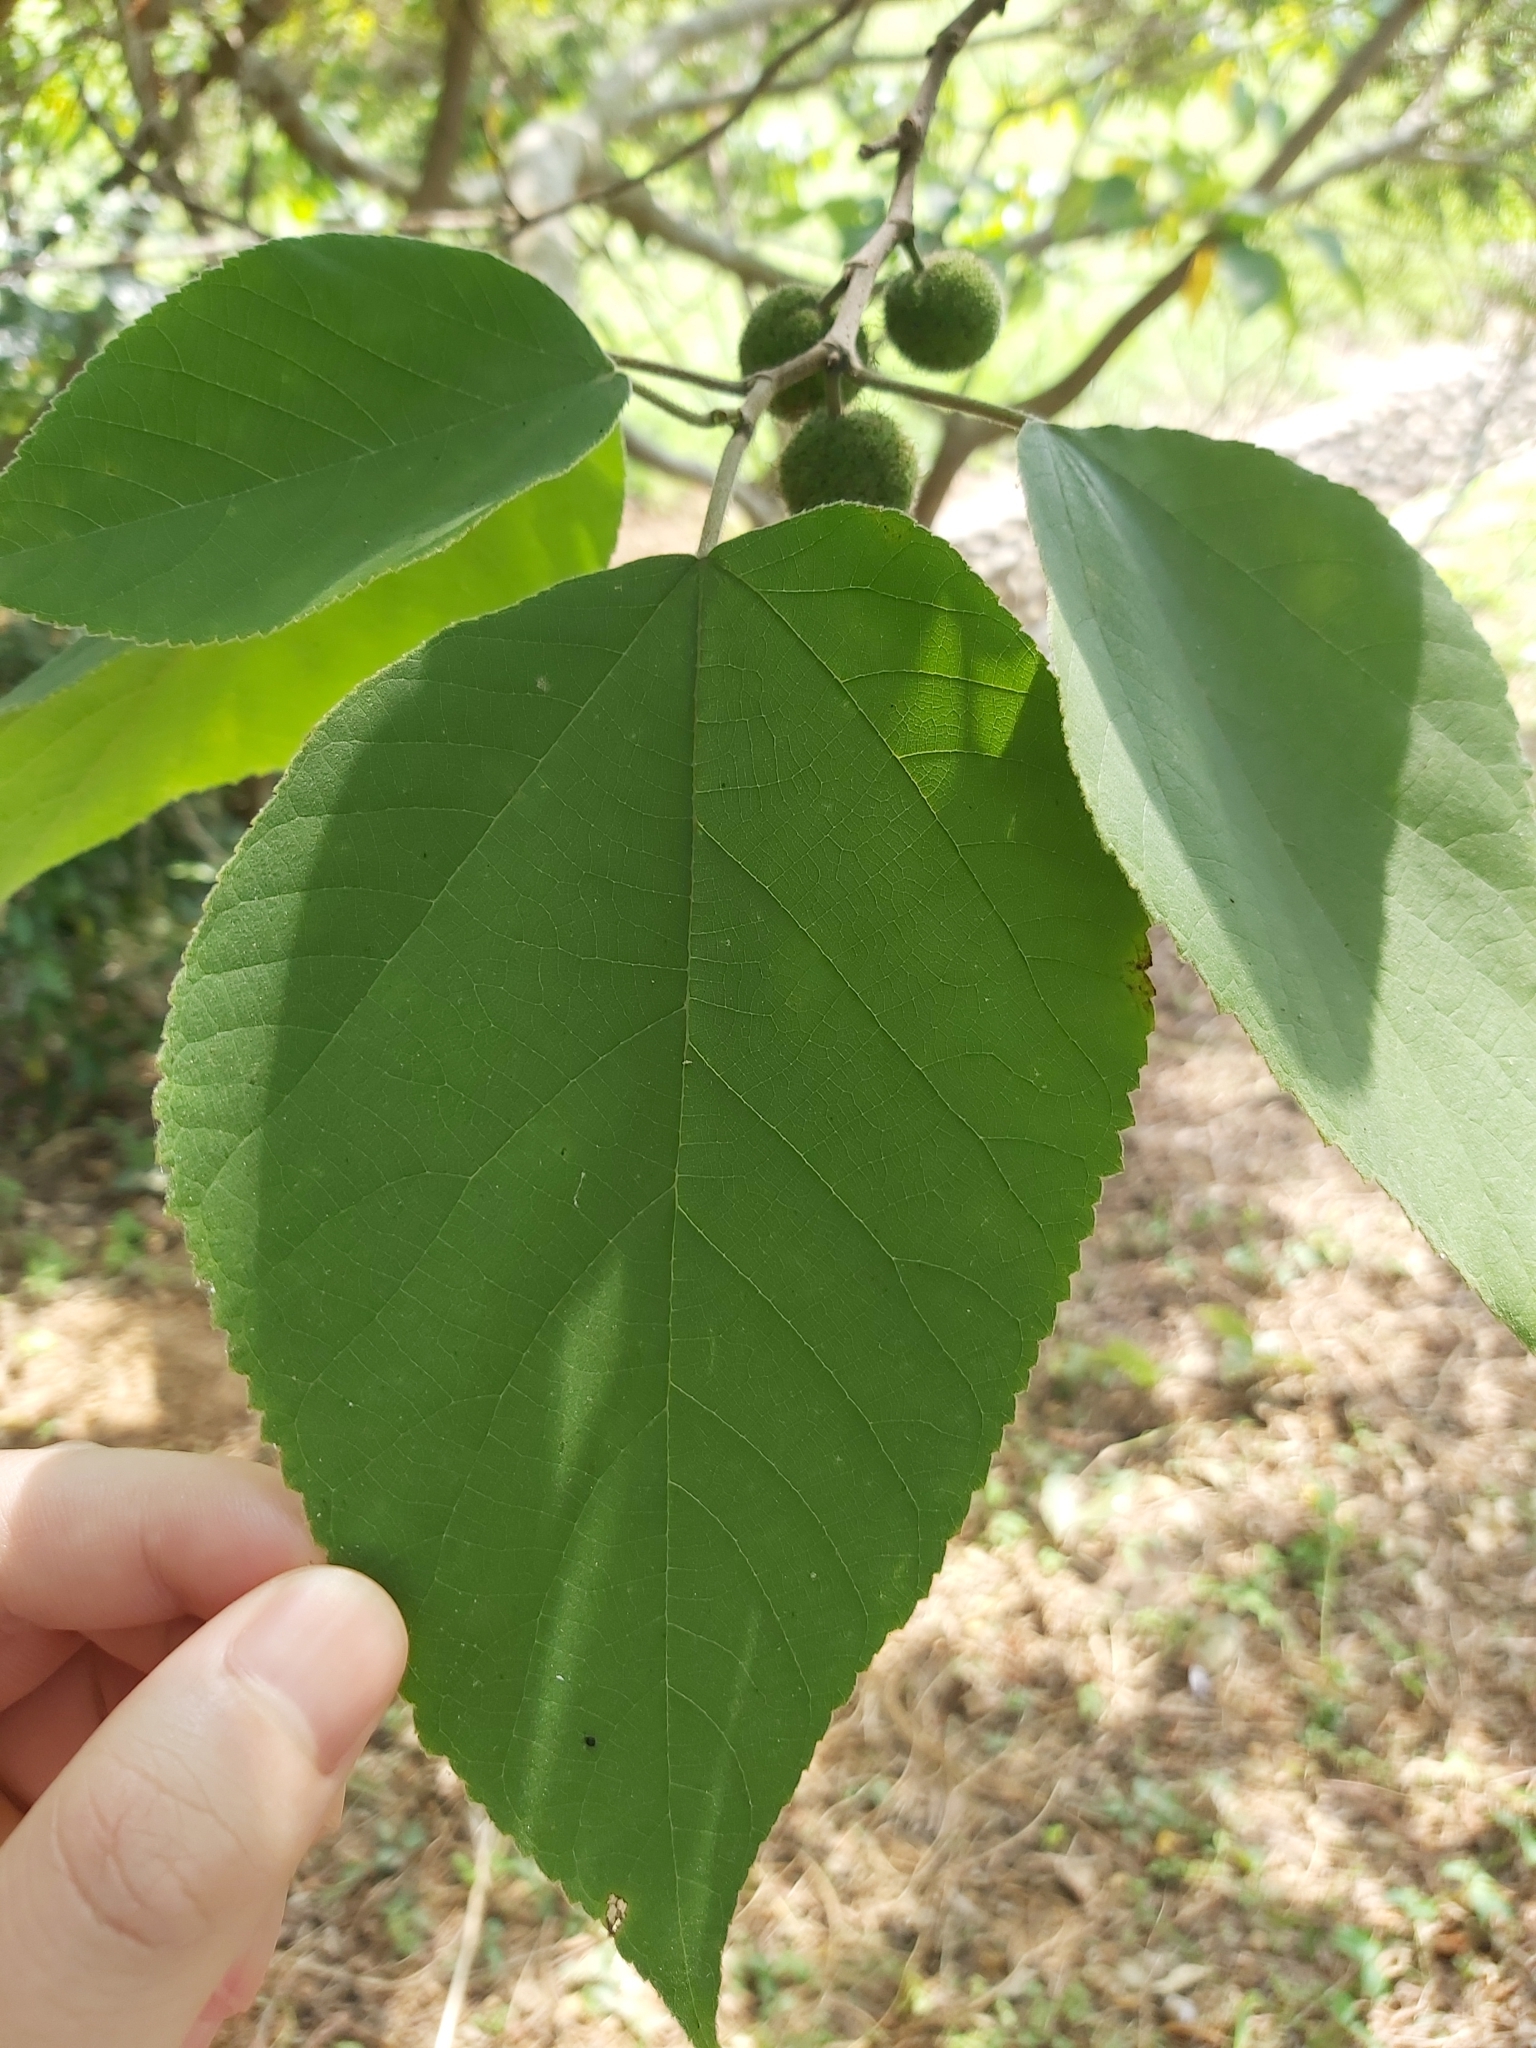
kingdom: Plantae
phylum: Tracheophyta
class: Magnoliopsida
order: Rosales
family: Moraceae
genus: Broussonetia
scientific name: Broussonetia papyrifera
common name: Paper mulberry
